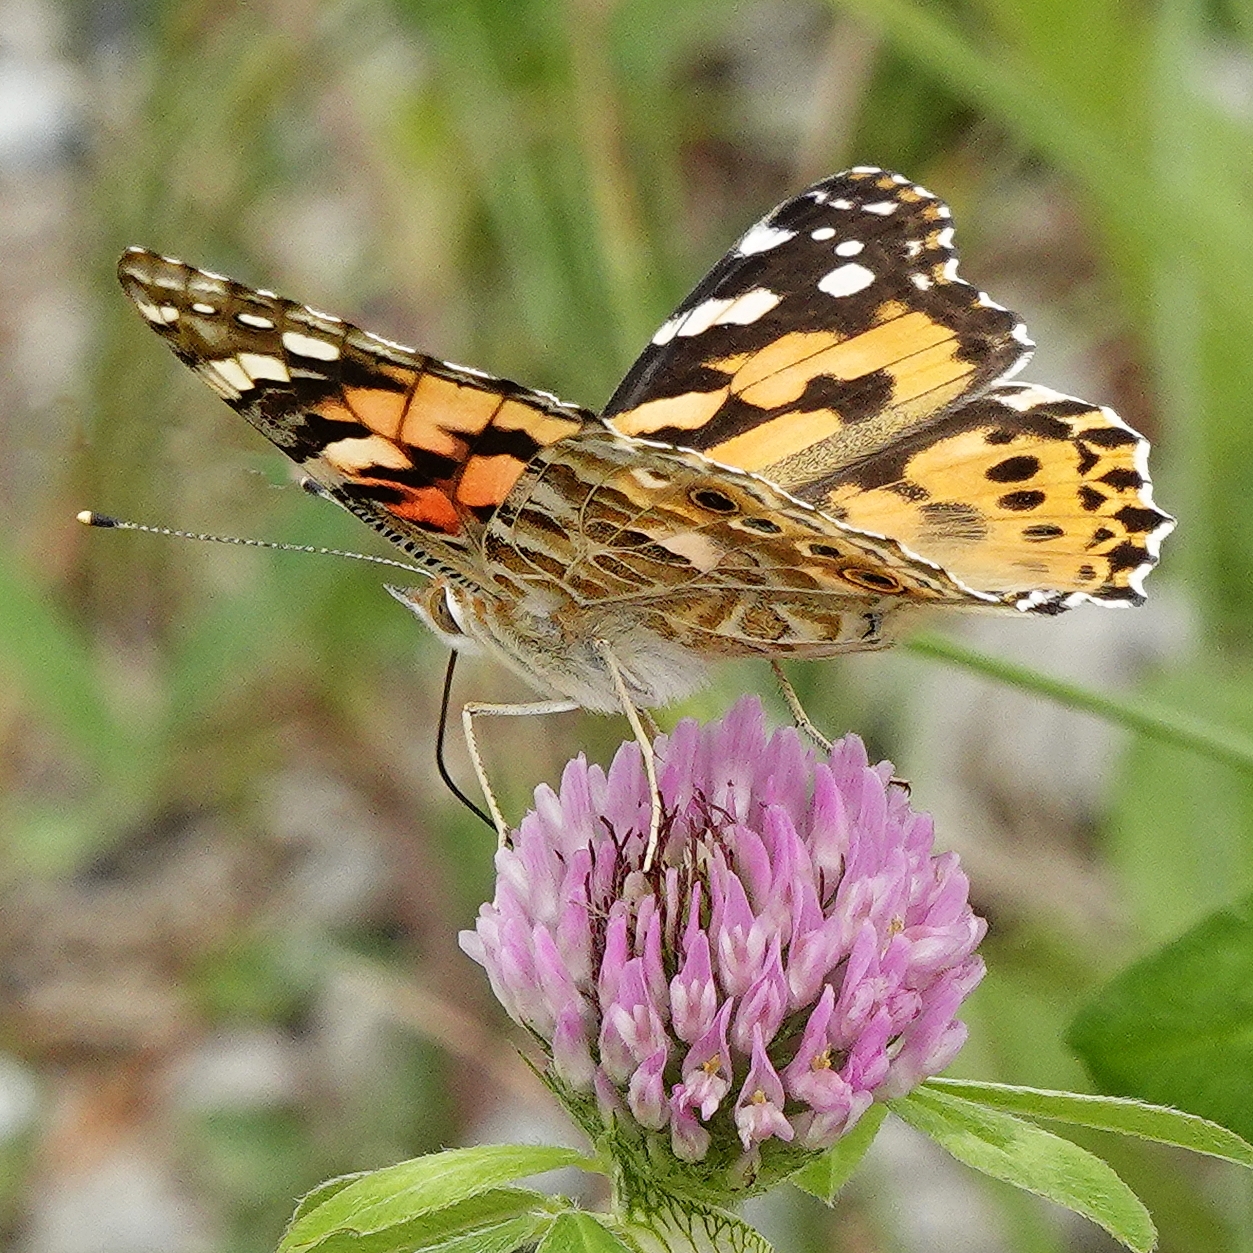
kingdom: Animalia
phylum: Arthropoda
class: Insecta
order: Lepidoptera
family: Nymphalidae
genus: Vanessa
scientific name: Vanessa cardui
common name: Painted lady
